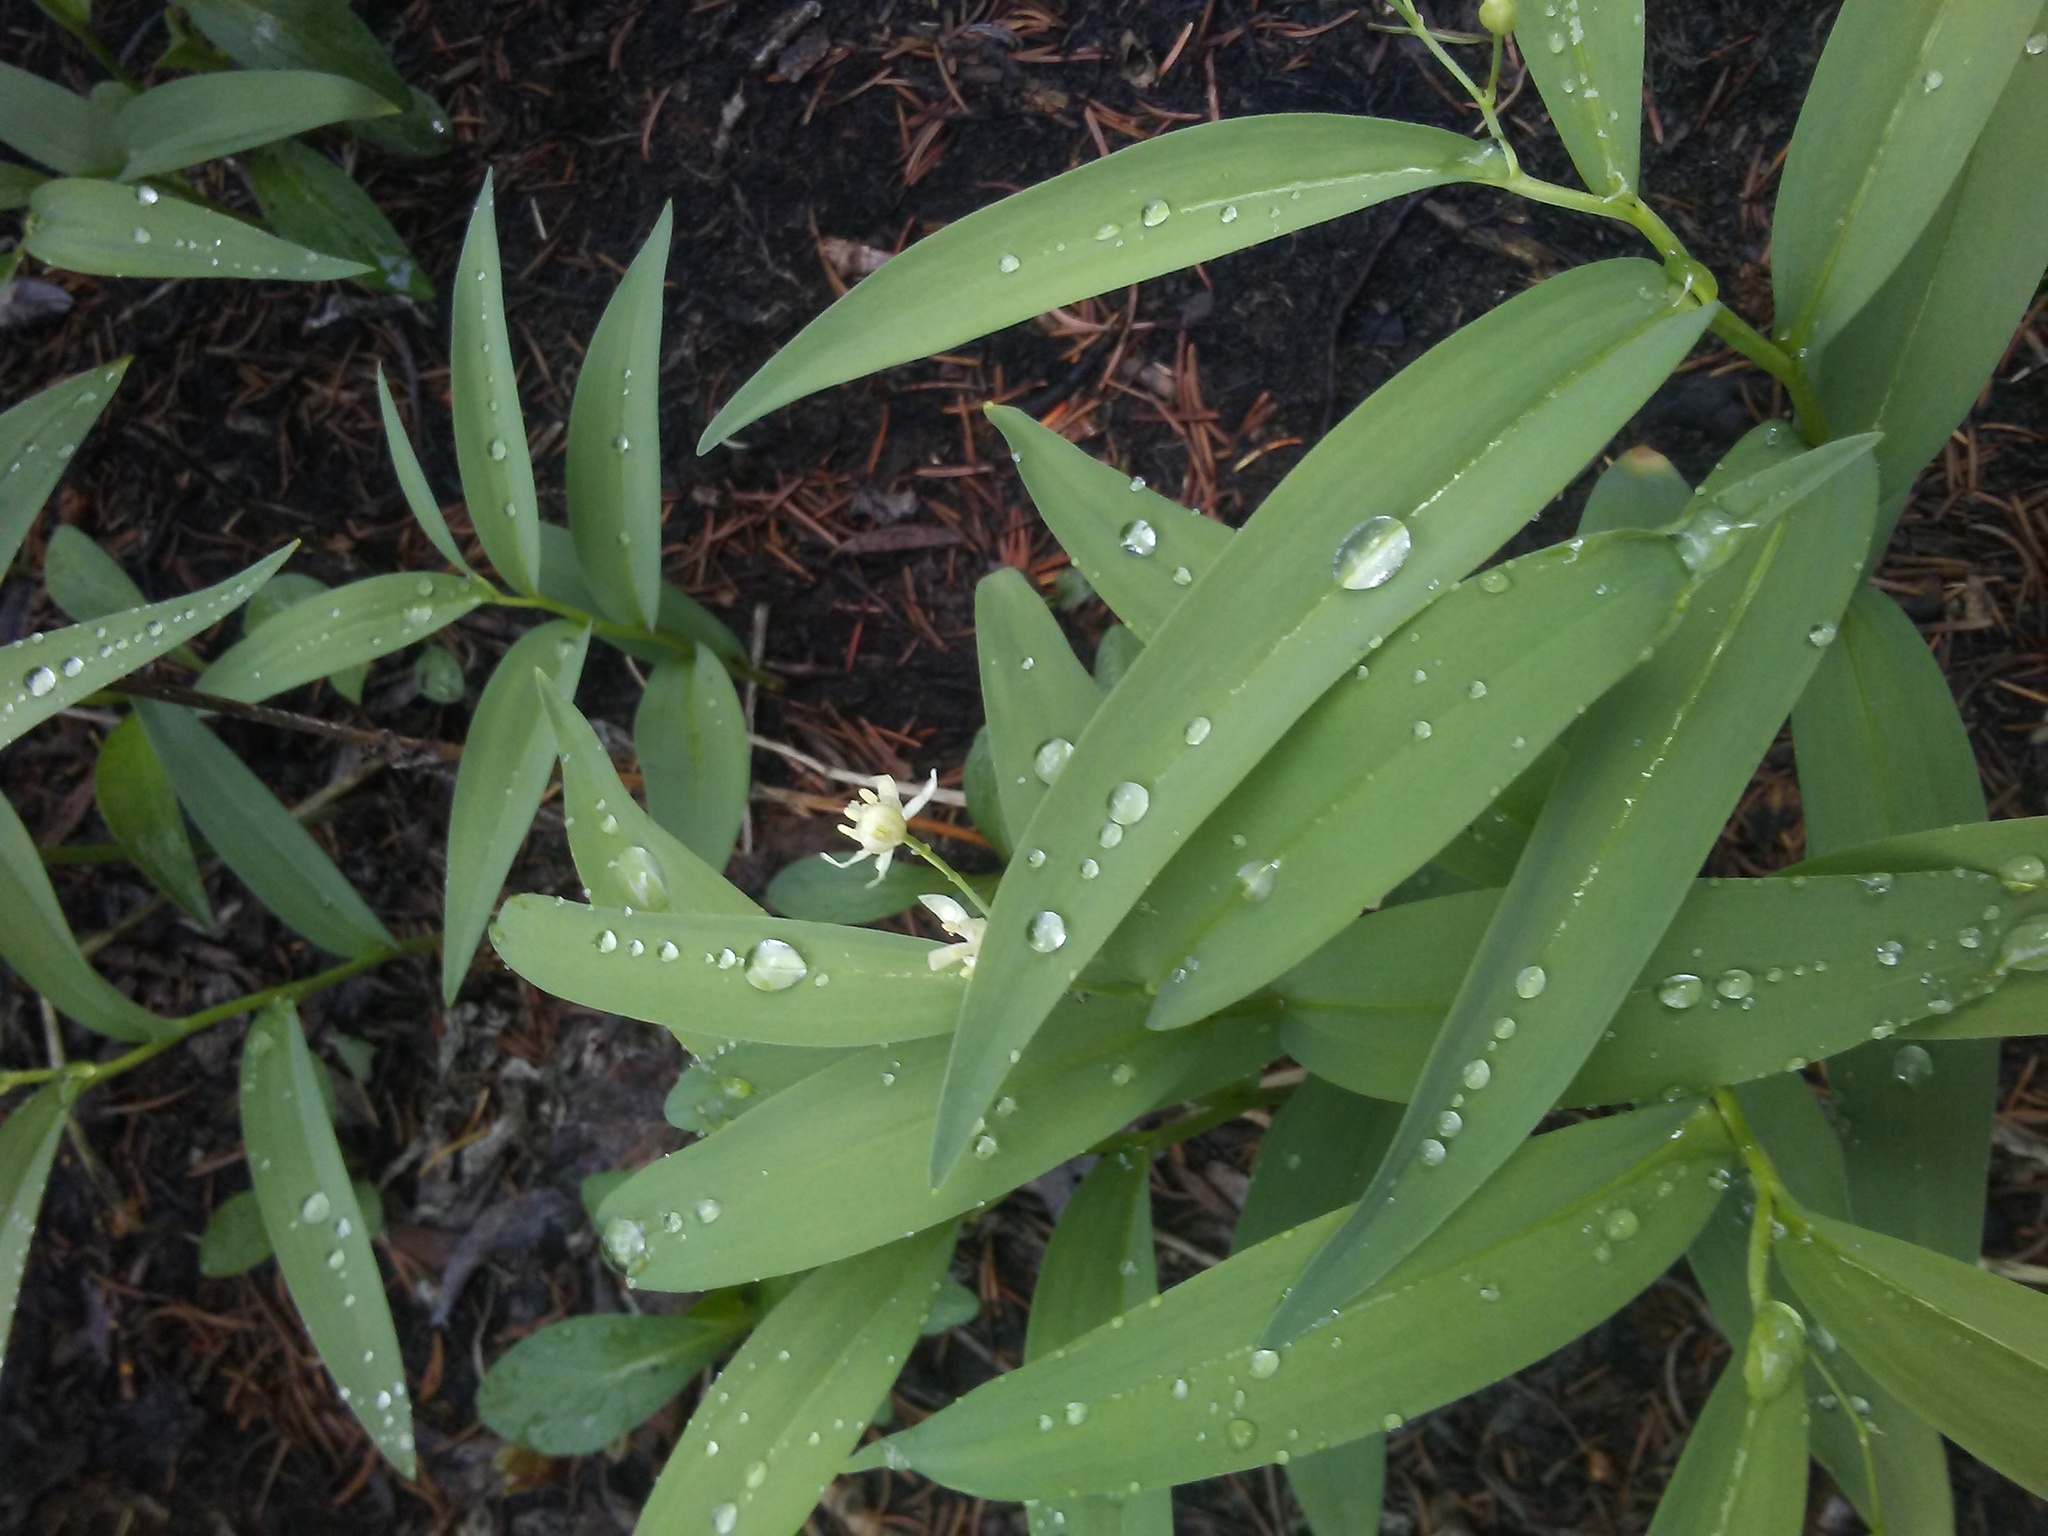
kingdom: Plantae
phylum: Tracheophyta
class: Liliopsida
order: Asparagales
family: Asparagaceae
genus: Maianthemum
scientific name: Maianthemum stellatum
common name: Little false solomon's seal
